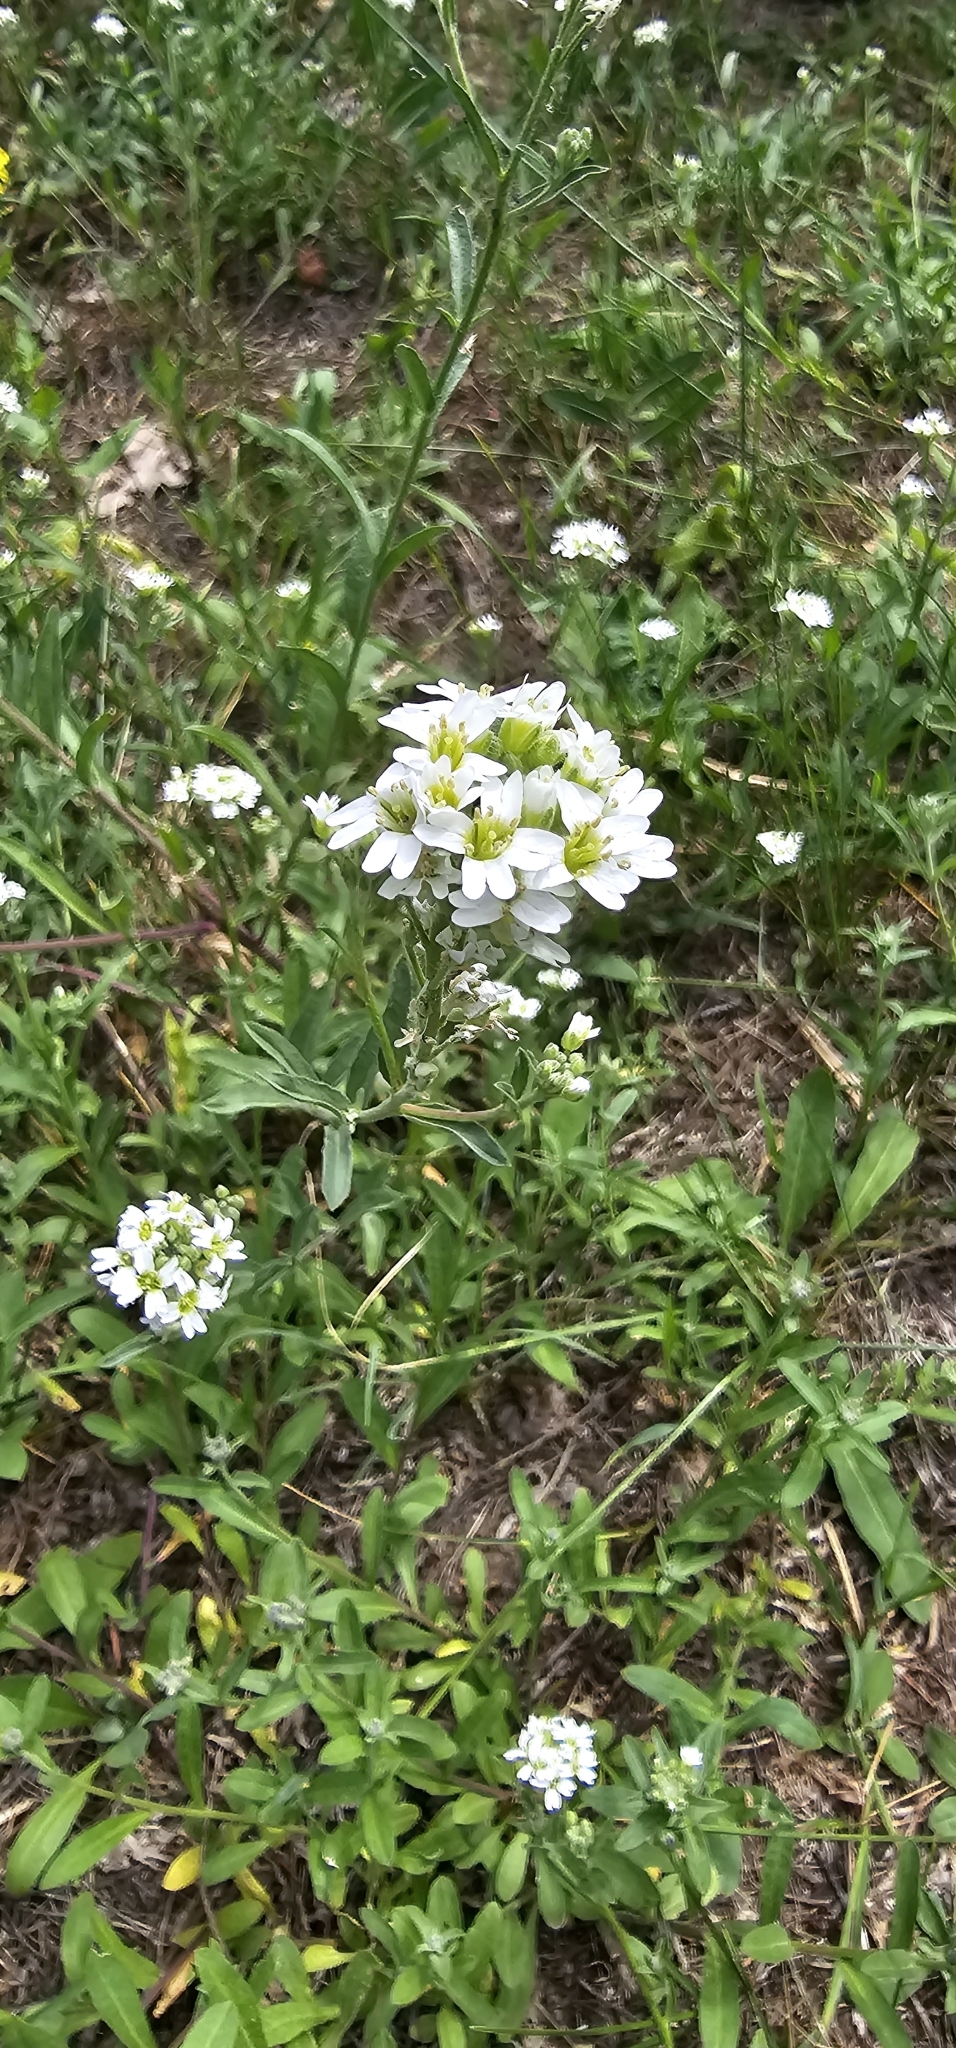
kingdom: Plantae
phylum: Tracheophyta
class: Magnoliopsida
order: Brassicales
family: Brassicaceae
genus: Berteroa
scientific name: Berteroa incana
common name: Hoary alison
